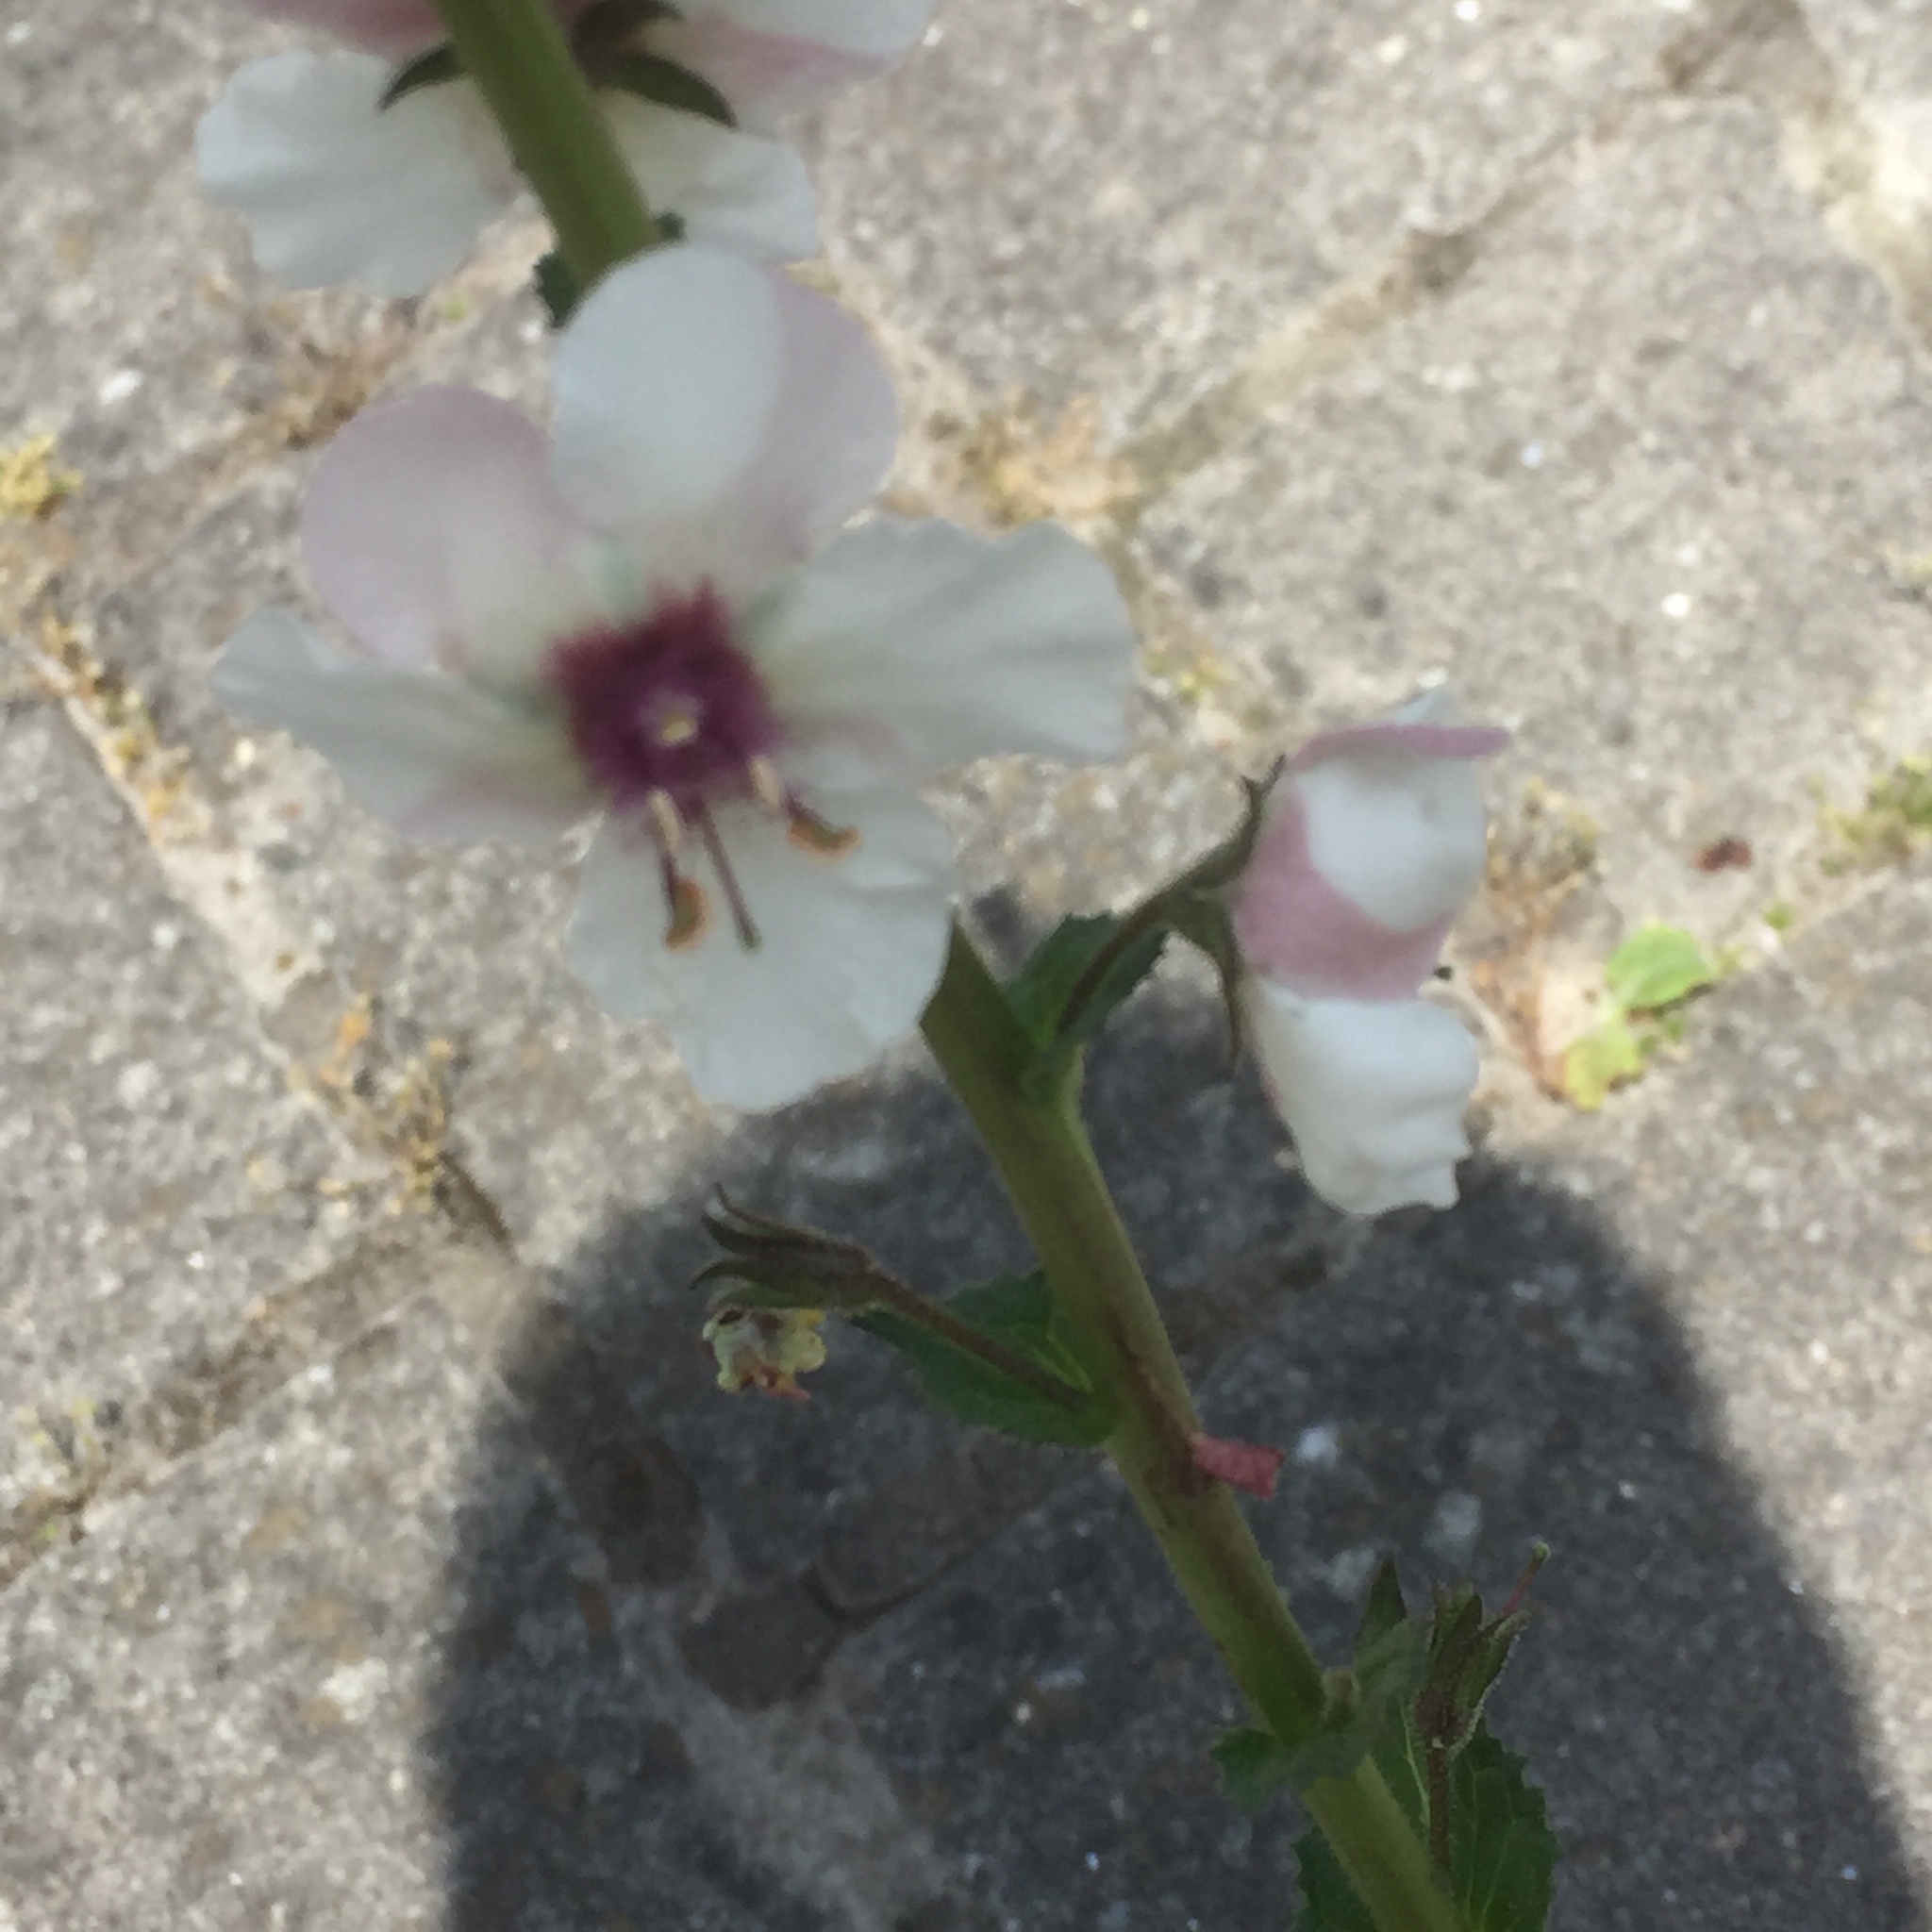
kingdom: Plantae
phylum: Tracheophyta
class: Magnoliopsida
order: Lamiales
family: Scrophulariaceae
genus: Verbascum
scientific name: Verbascum blattaria
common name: Moth mullein
